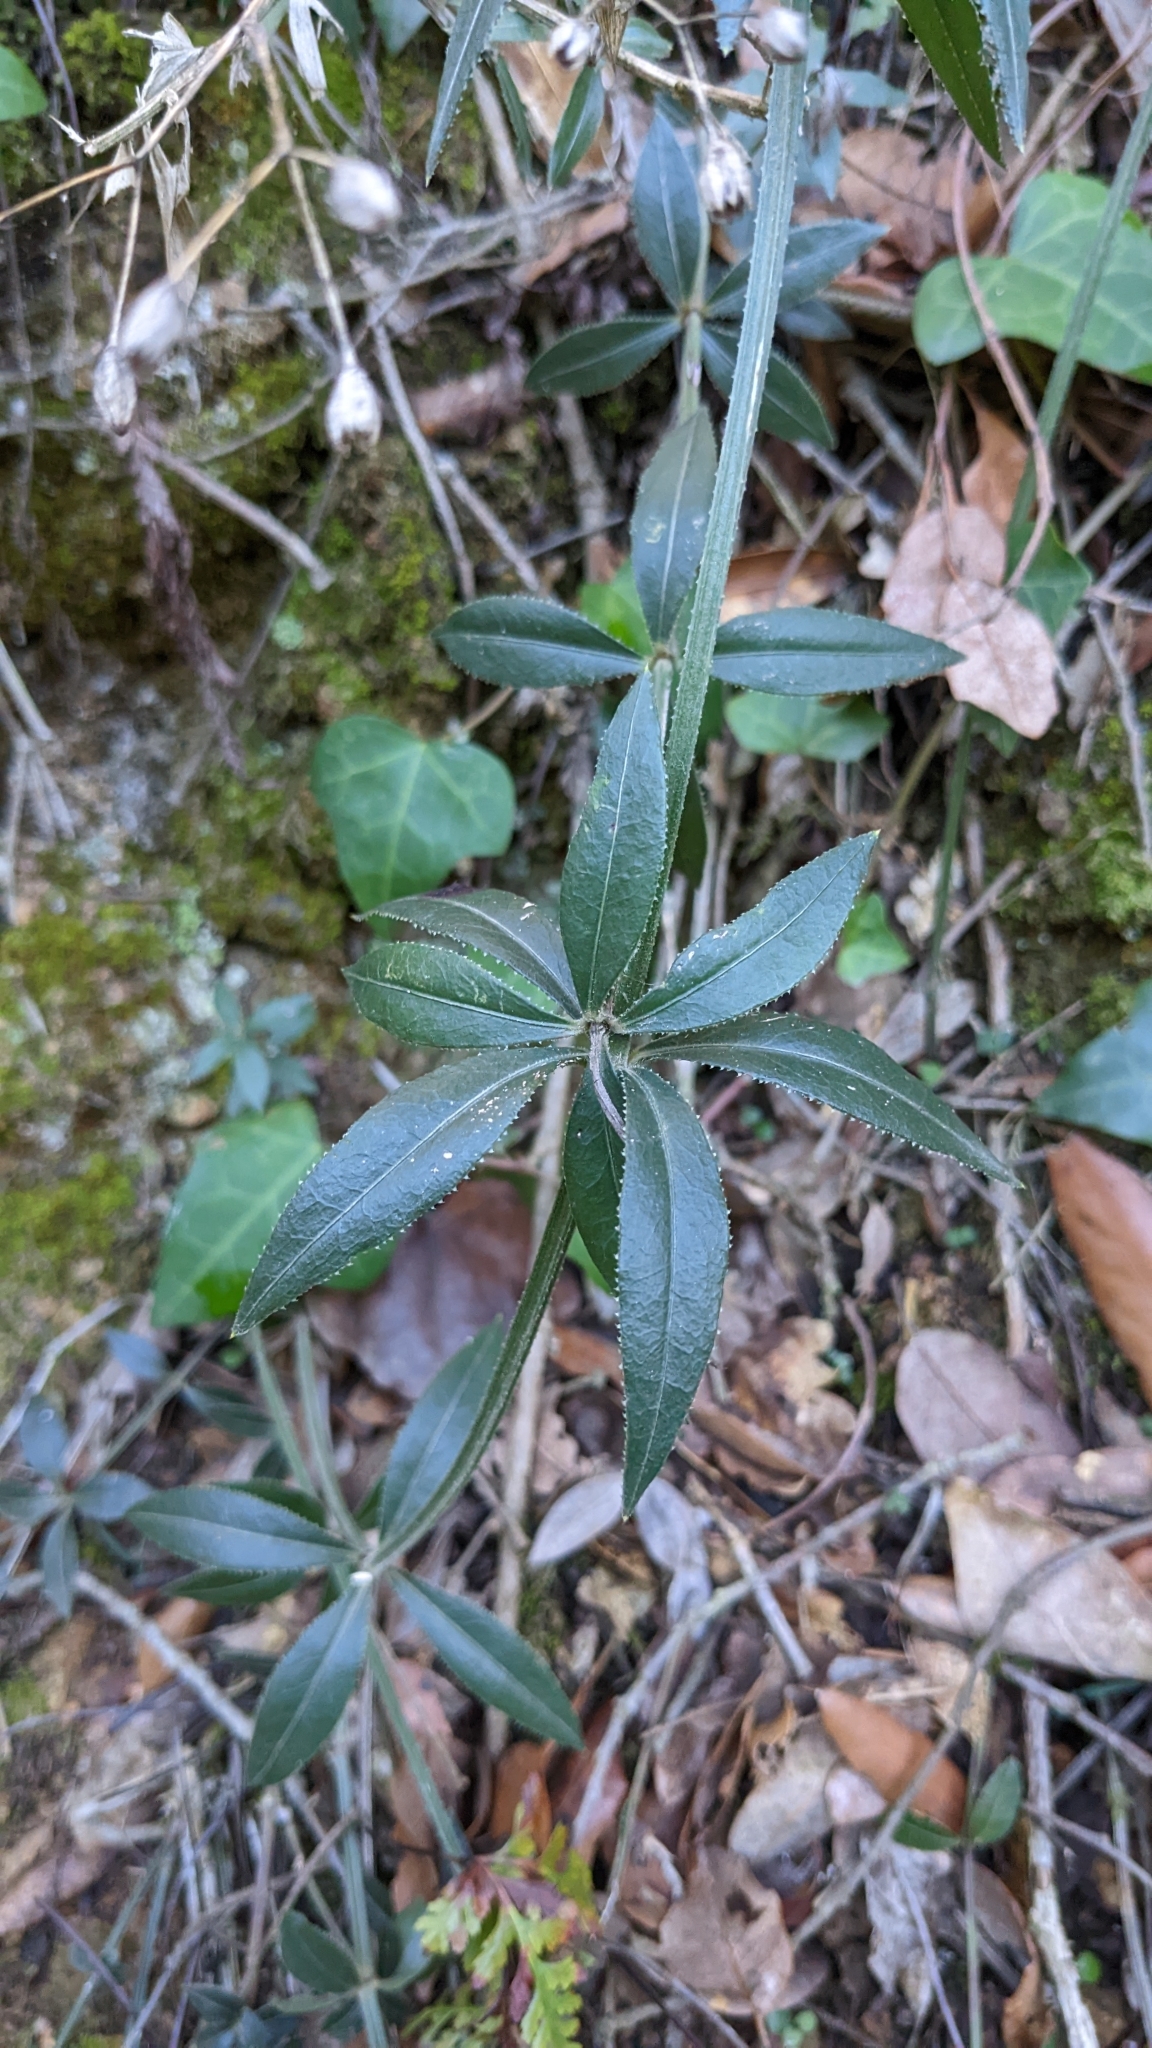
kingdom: Plantae
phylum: Tracheophyta
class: Magnoliopsida
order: Gentianales
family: Rubiaceae
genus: Rubia
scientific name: Rubia peregrina
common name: Wild madder
